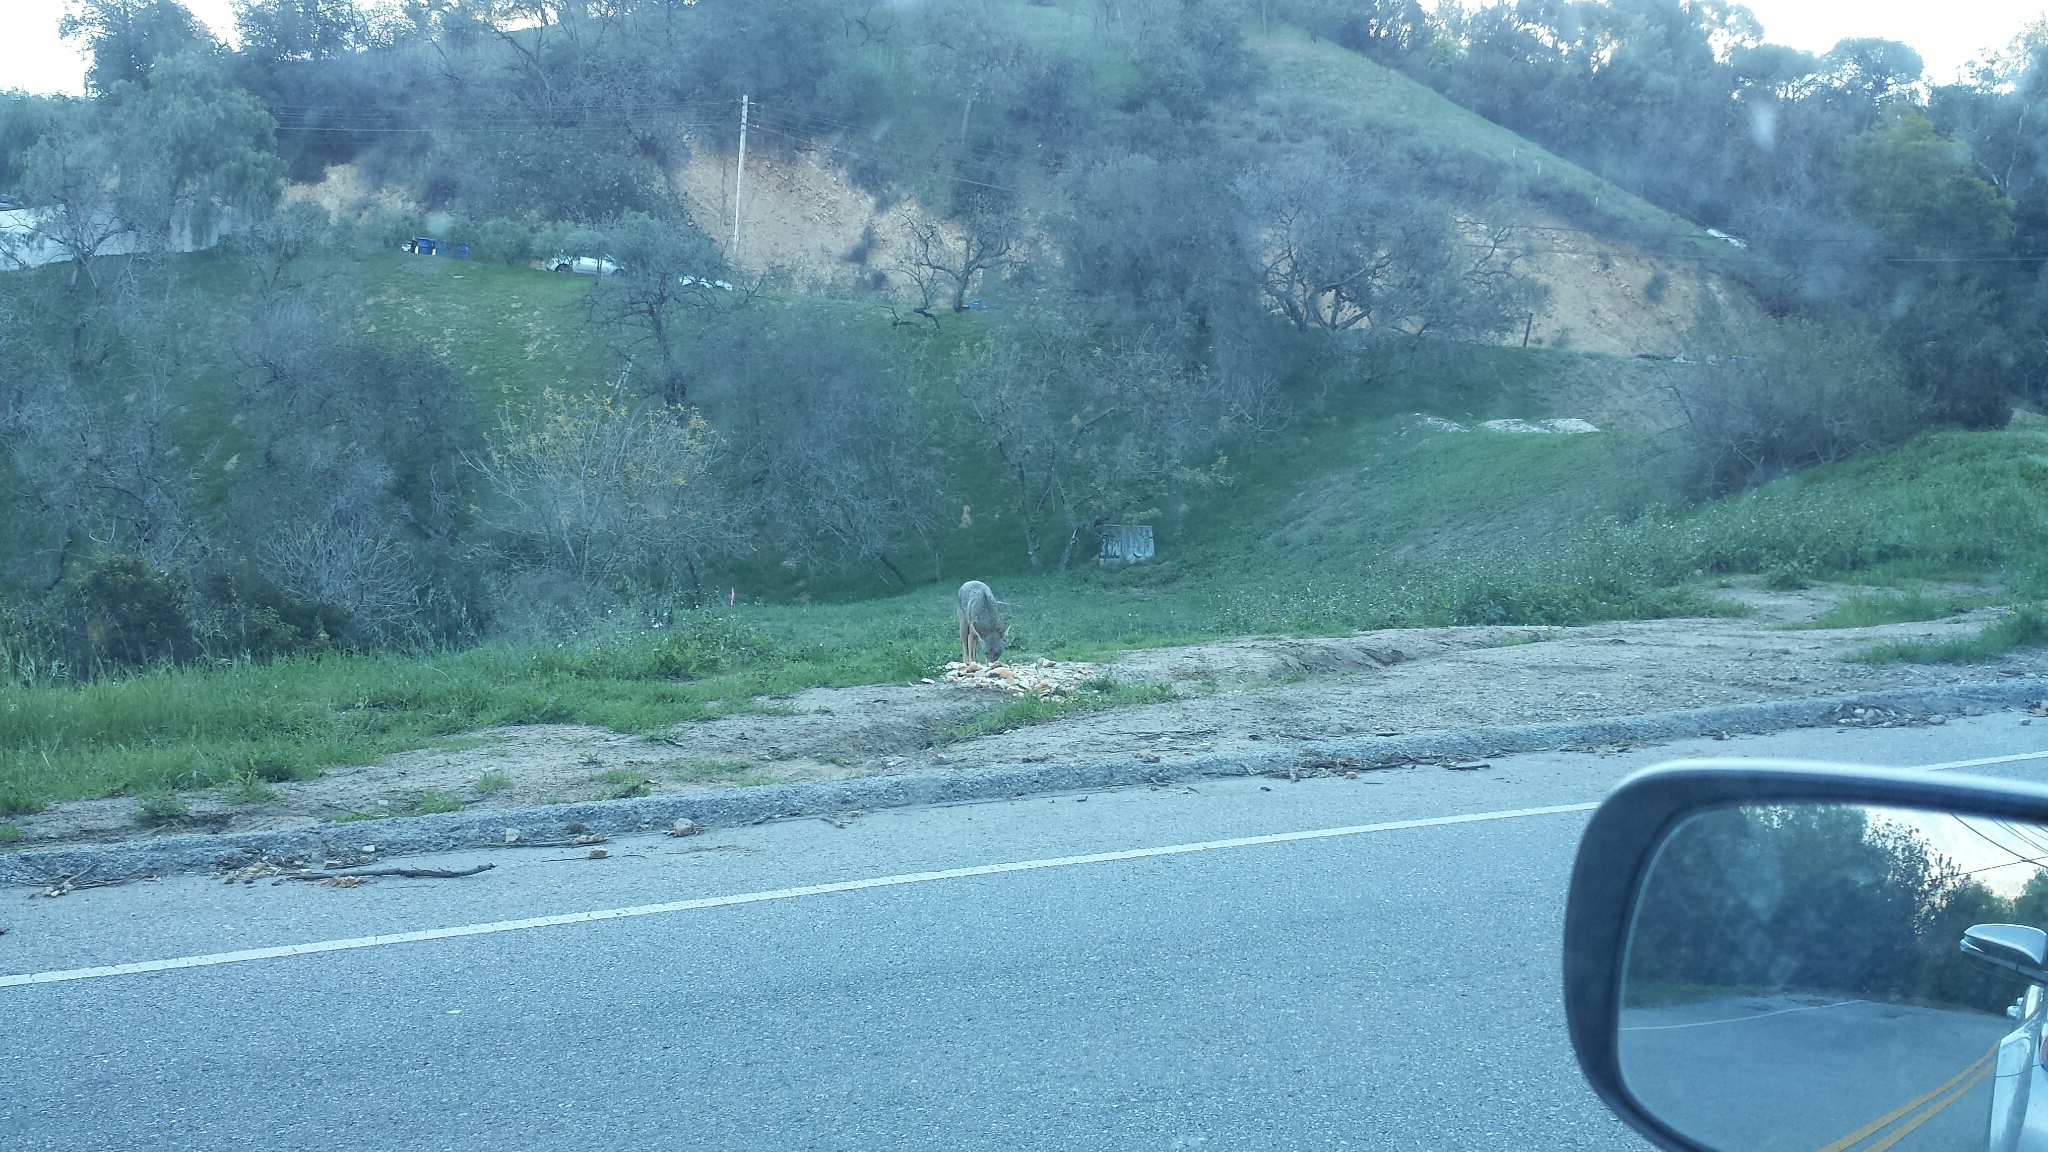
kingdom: Animalia
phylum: Chordata
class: Mammalia
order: Carnivora
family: Canidae
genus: Canis
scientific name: Canis latrans
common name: Coyote
